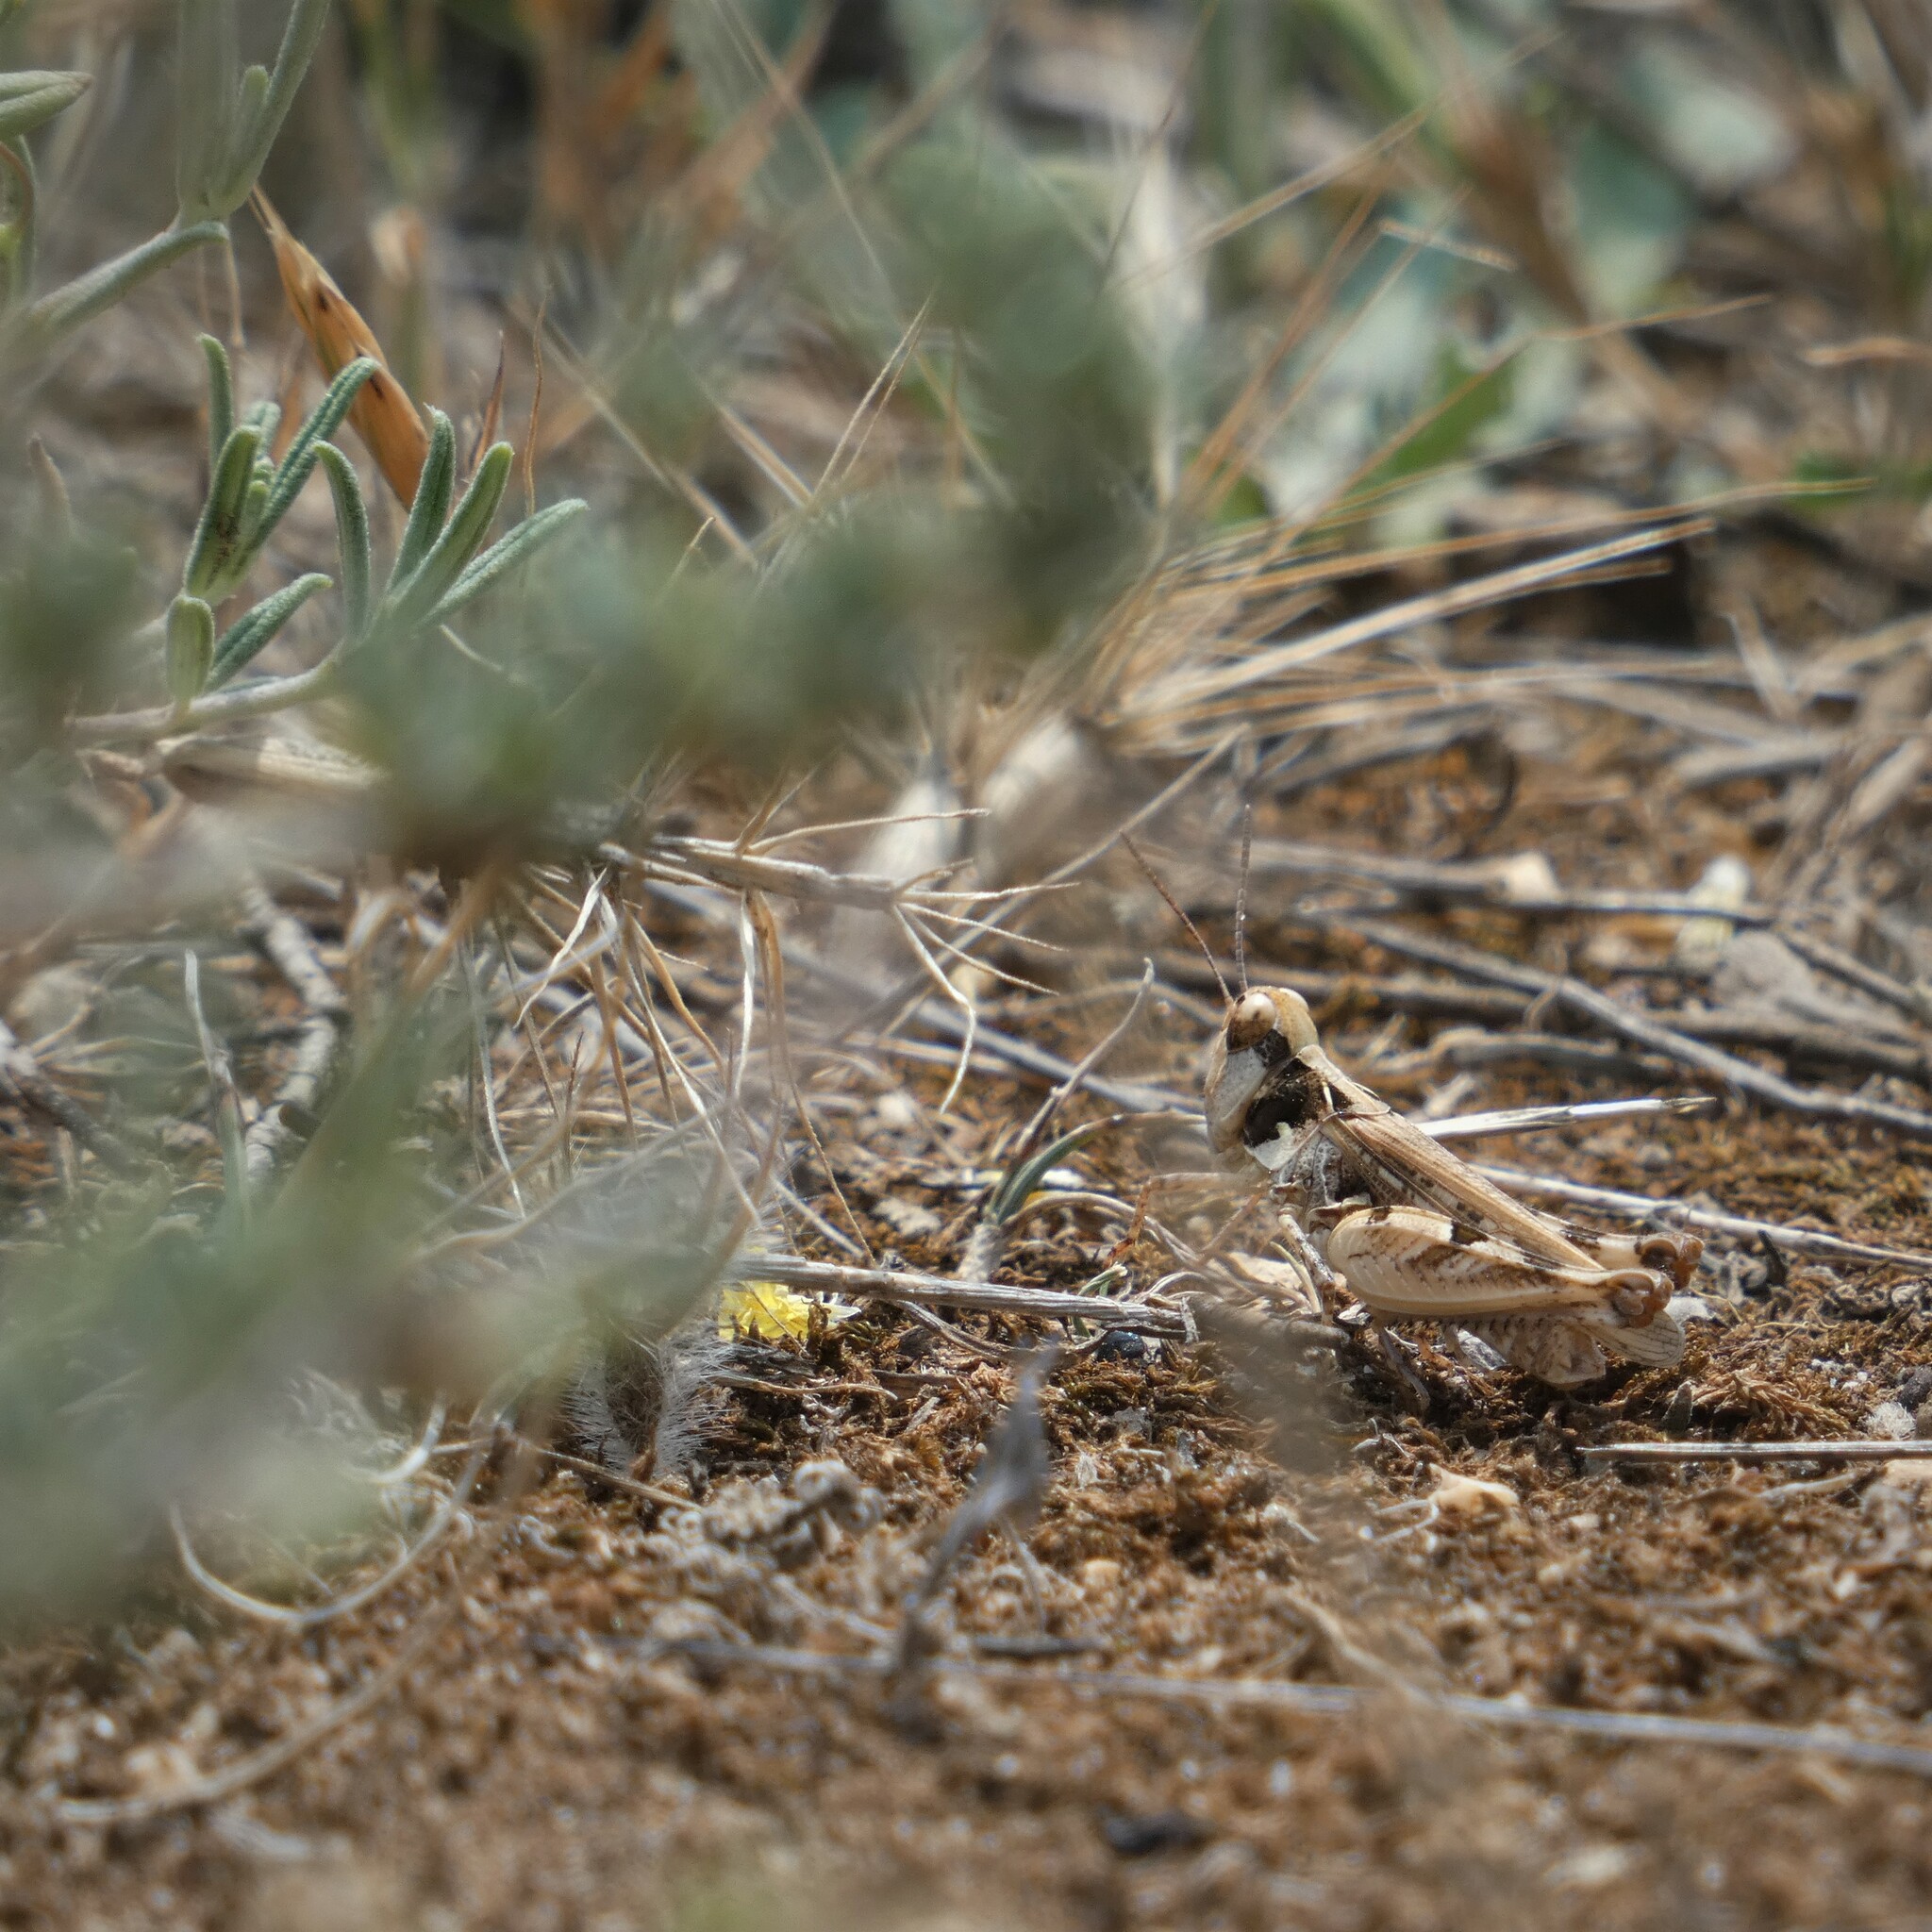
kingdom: Animalia
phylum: Arthropoda
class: Insecta
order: Orthoptera
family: Acrididae
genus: Dociostaurus
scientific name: Dociostaurus jagoi
